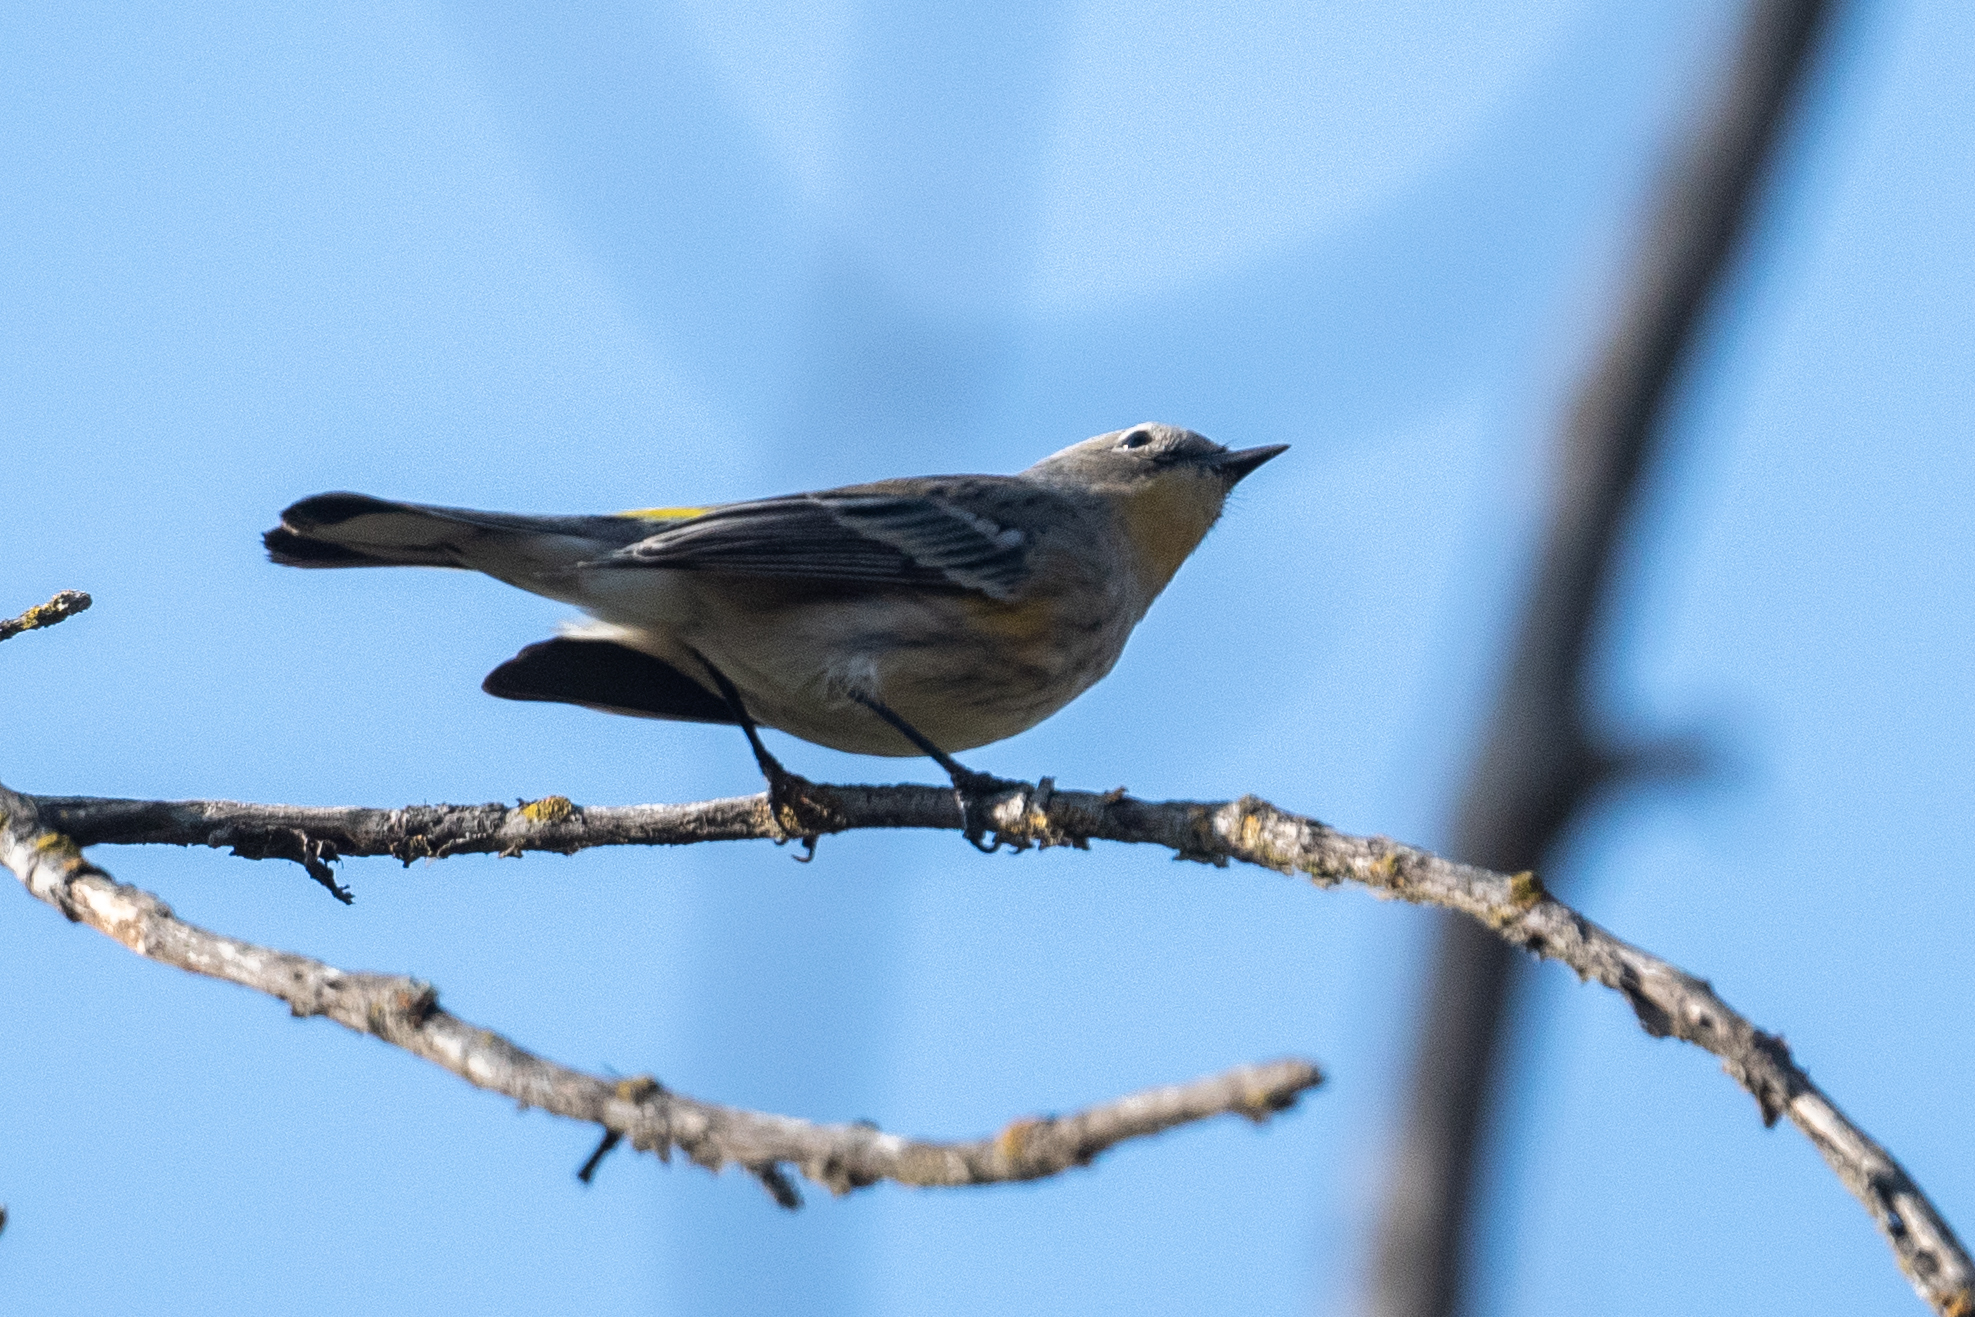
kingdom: Animalia
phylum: Chordata
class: Aves
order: Passeriformes
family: Parulidae
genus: Setophaga
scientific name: Setophaga coronata
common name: Myrtle warbler
